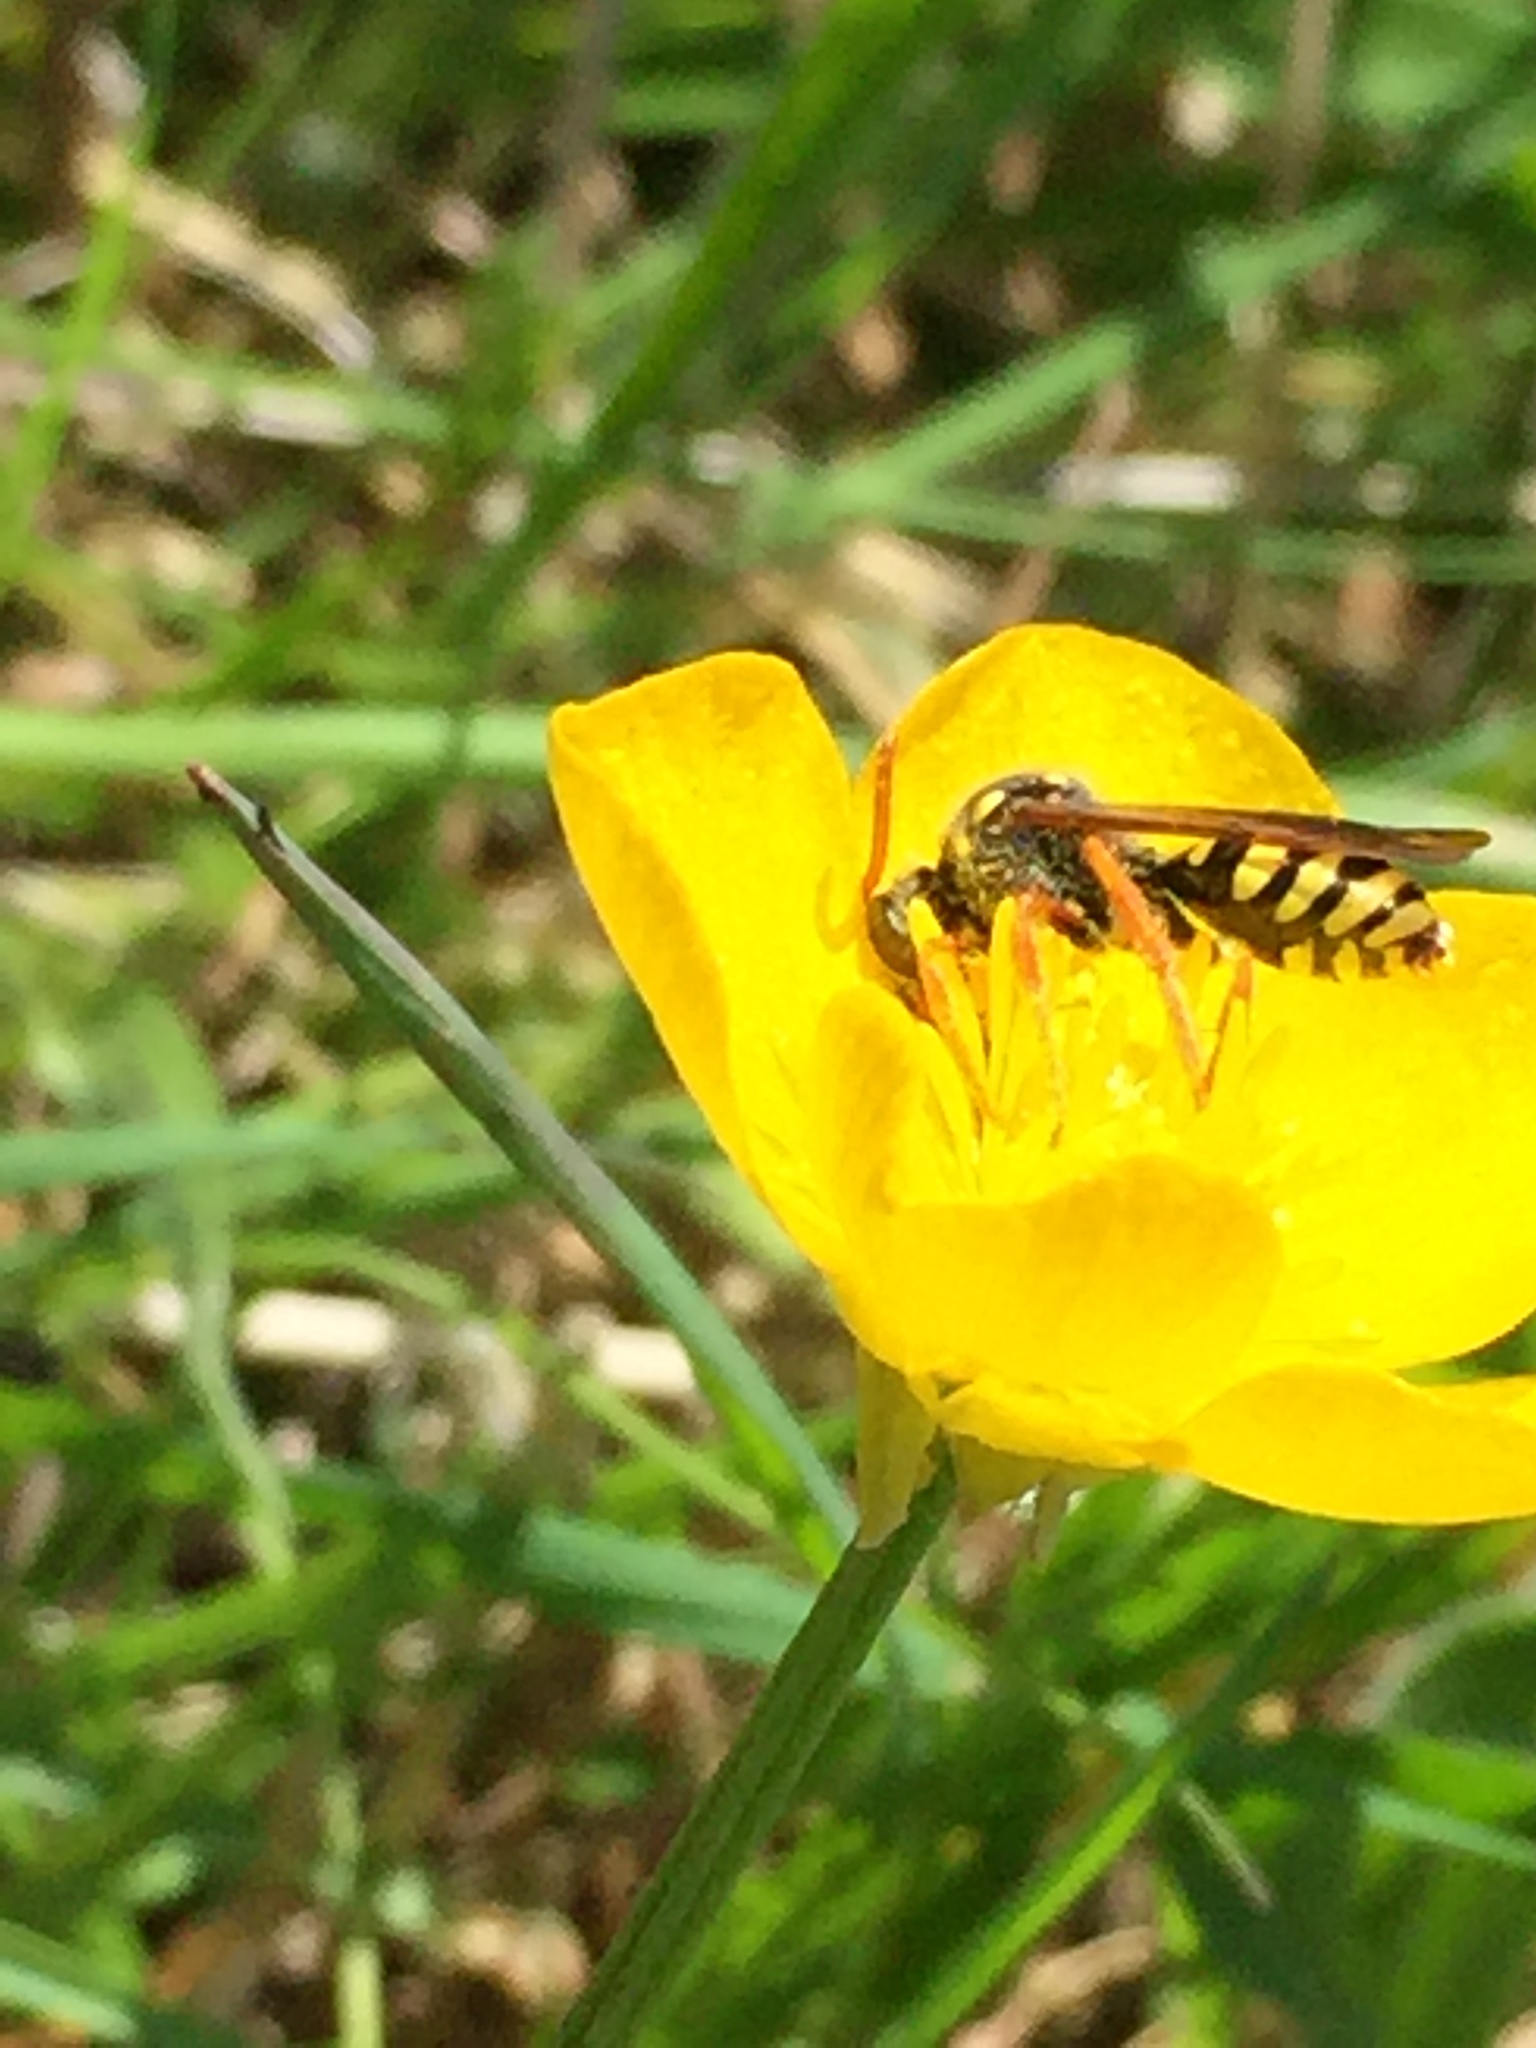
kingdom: Animalia
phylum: Arthropoda
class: Insecta
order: Hymenoptera
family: Apidae
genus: Nomada
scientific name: Nomada goodeniana
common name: Gooden's nomad bee
